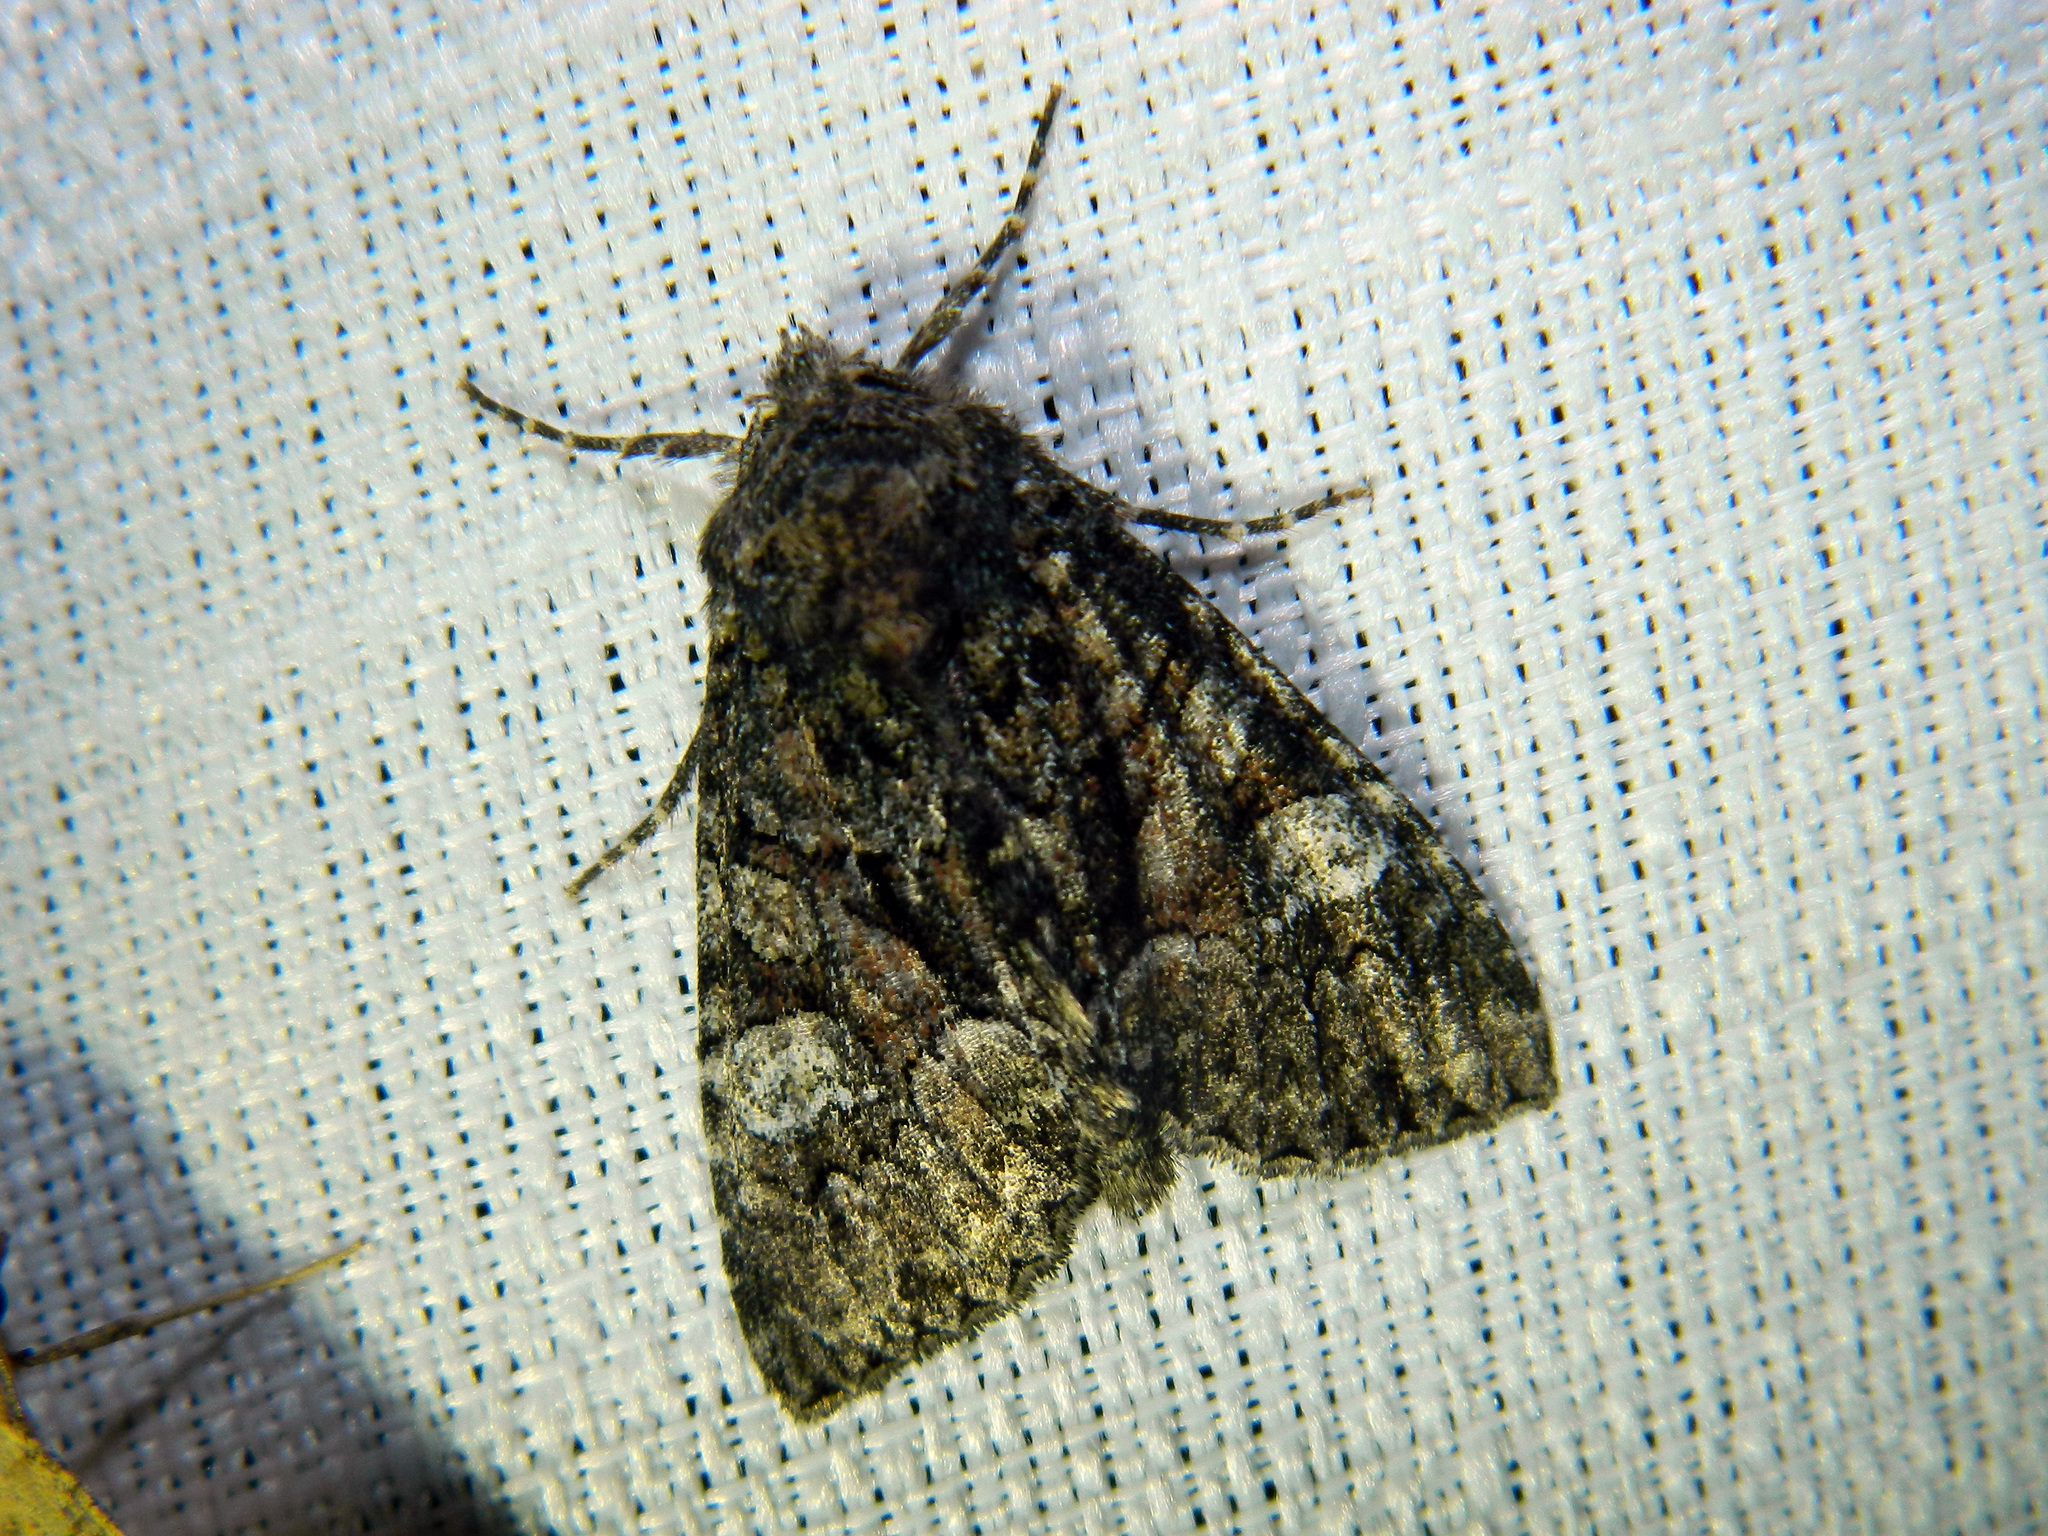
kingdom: Animalia
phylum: Arthropoda
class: Insecta
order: Lepidoptera
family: Noctuidae
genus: Fishia
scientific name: Fishia illocata
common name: Wandering brocade moth
